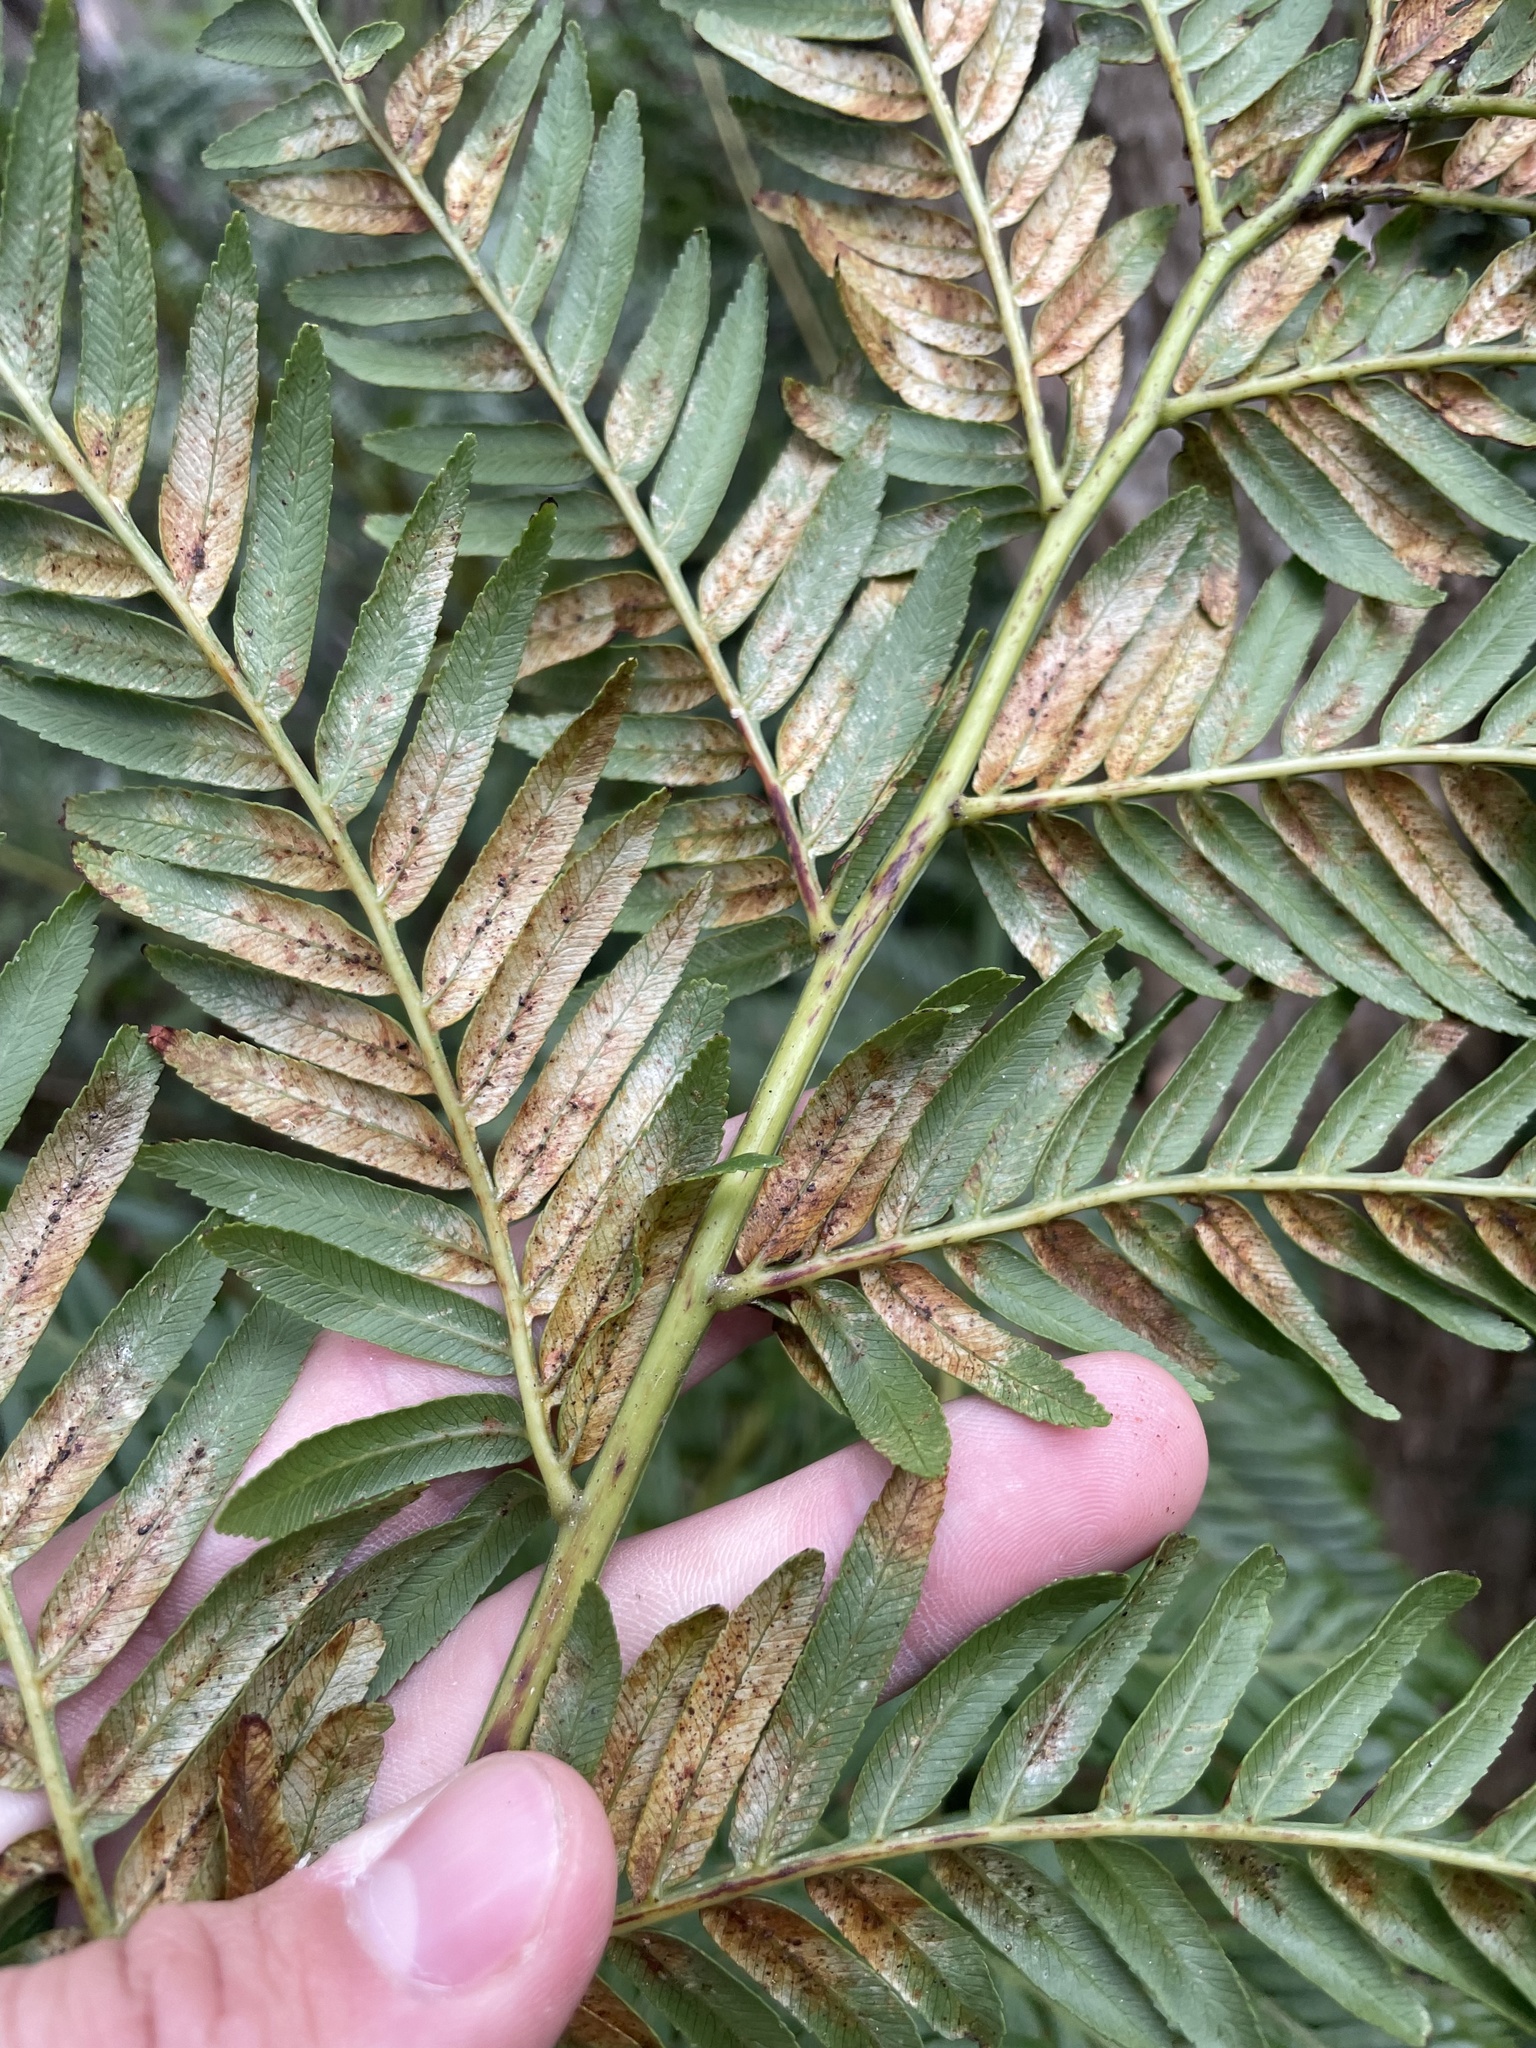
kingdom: Plantae
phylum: Tracheophyta
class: Polypodiopsida
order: Osmundales
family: Osmundaceae
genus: Todea
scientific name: Todea barbara
